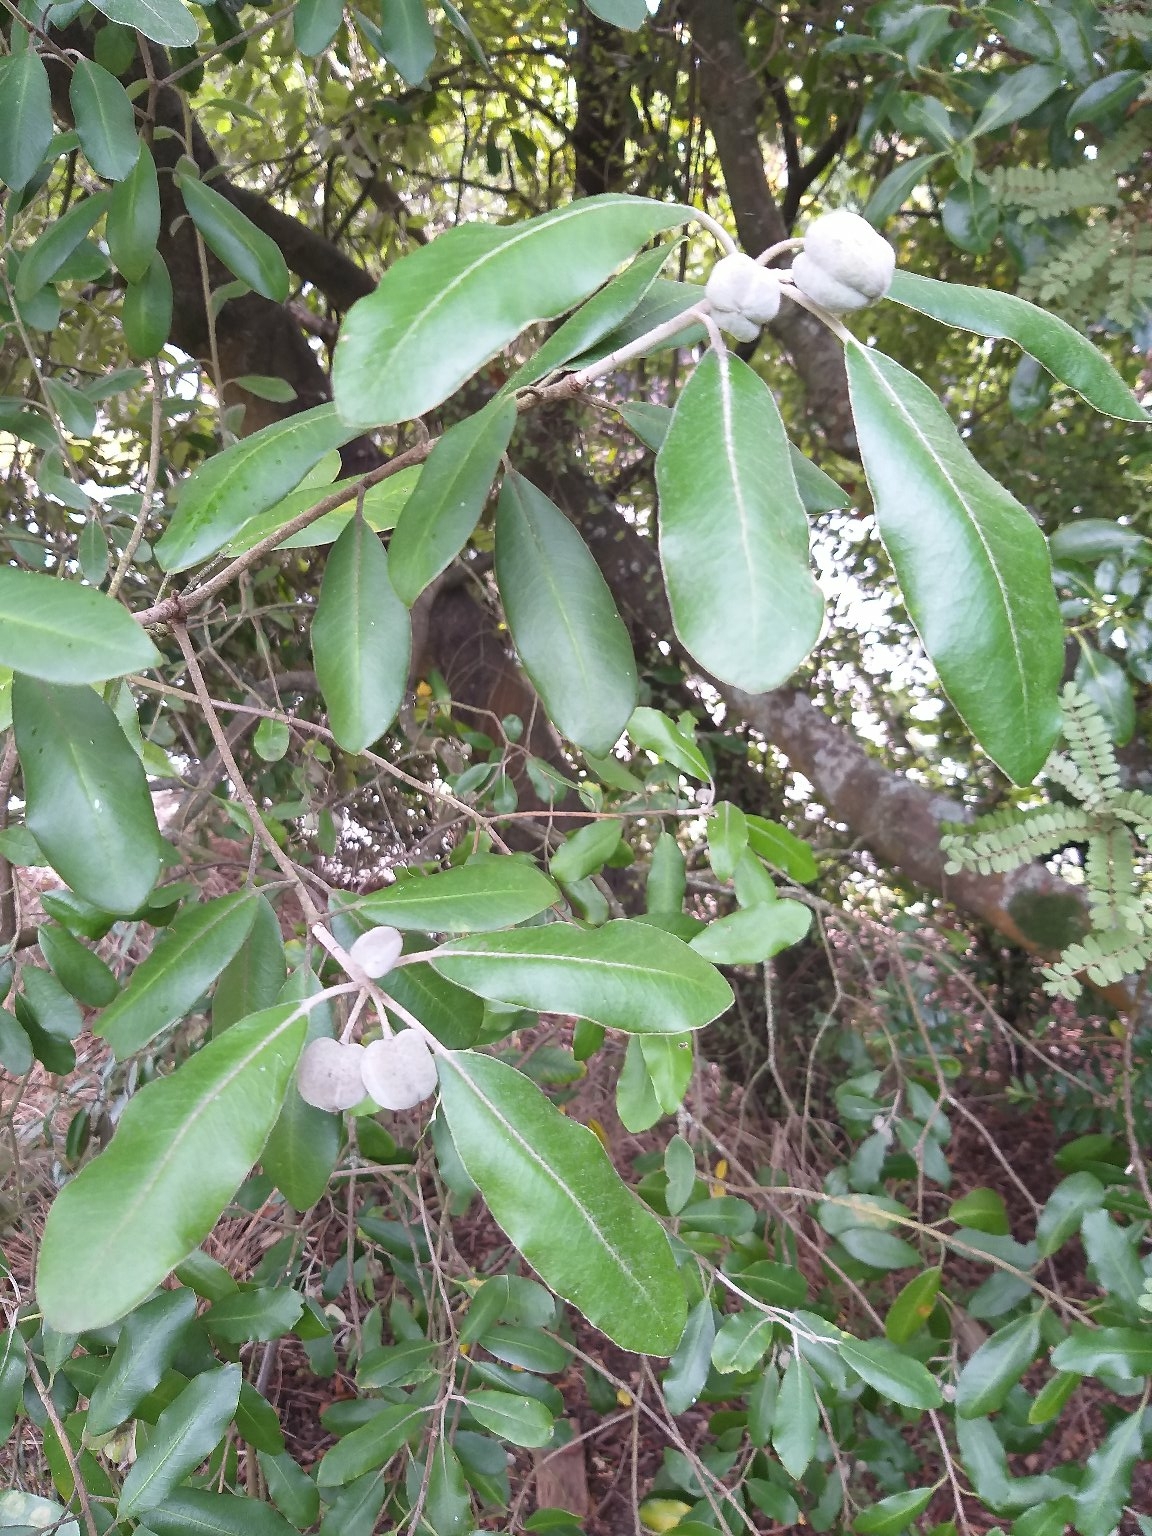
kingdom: Plantae
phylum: Tracheophyta
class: Magnoliopsida
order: Apiales
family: Pittosporaceae
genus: Pittosporum
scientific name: Pittosporum ralphii
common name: Ralph's desertwillow
